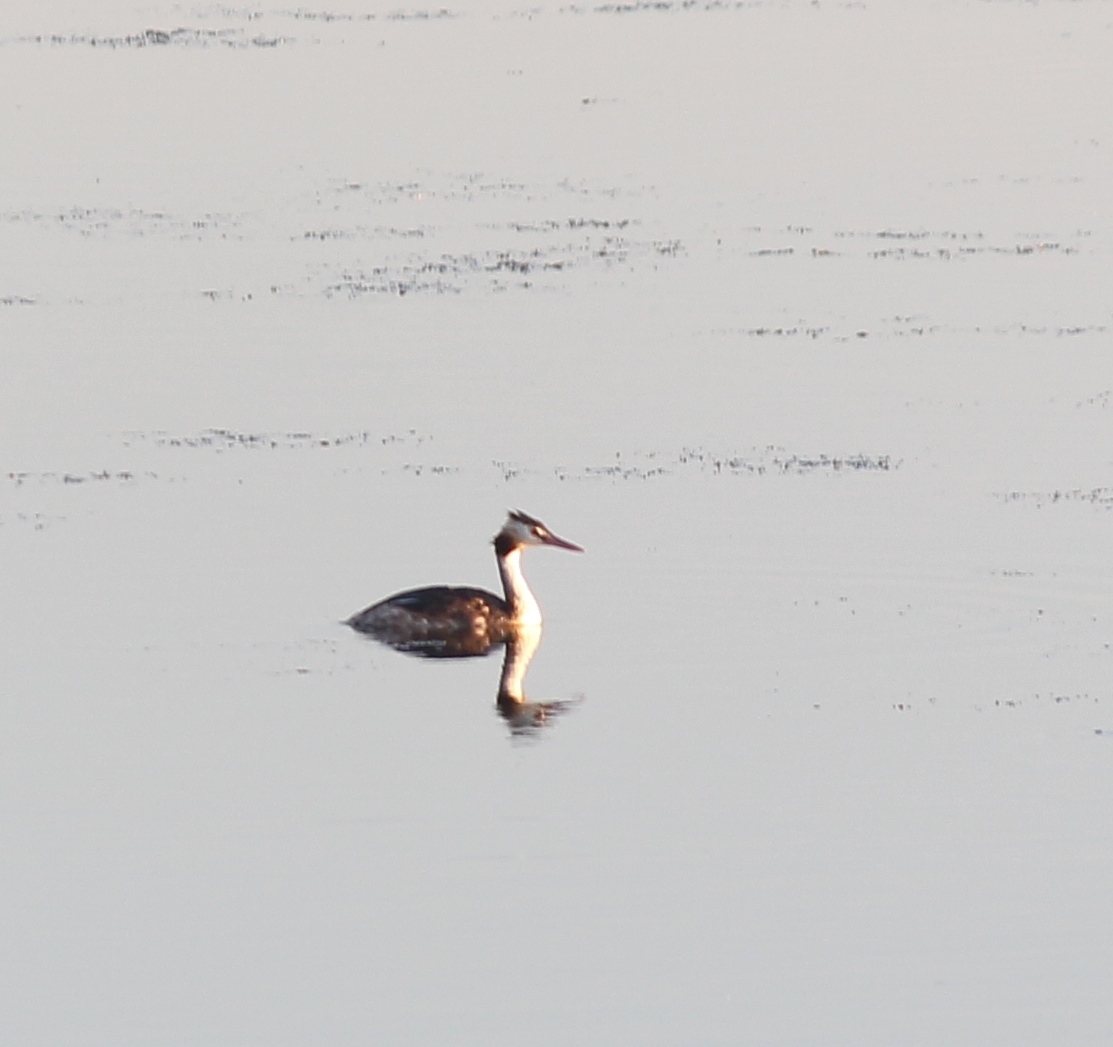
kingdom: Animalia
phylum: Chordata
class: Aves
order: Podicipediformes
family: Podicipedidae
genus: Podiceps
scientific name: Podiceps cristatus
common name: Great crested grebe
